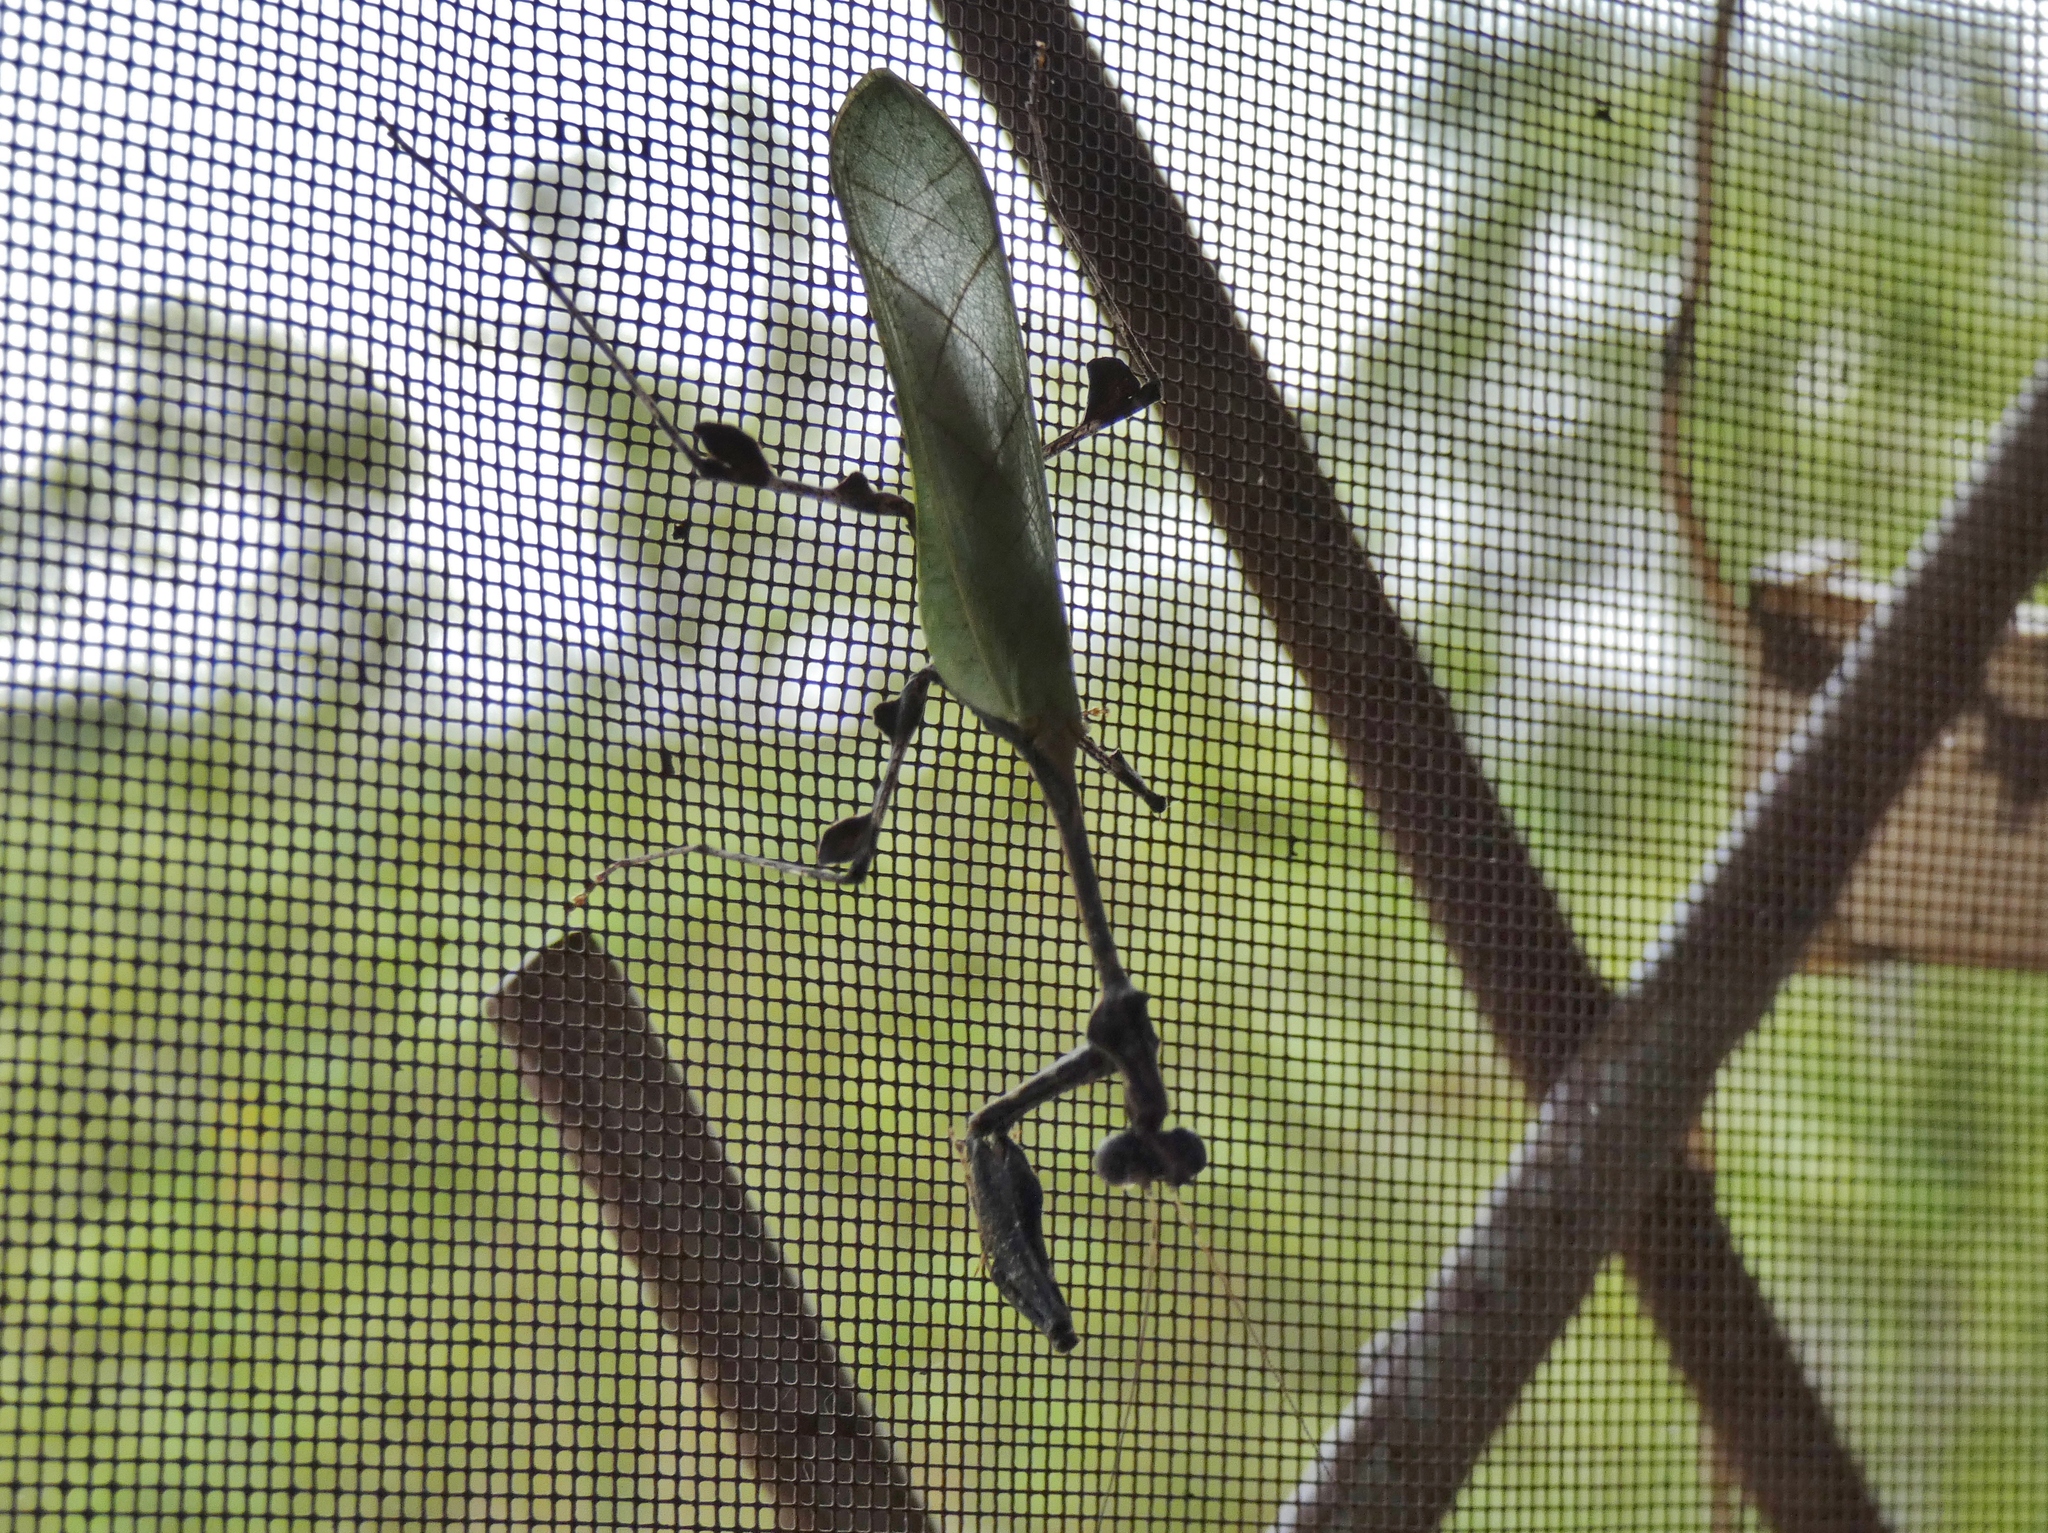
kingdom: Animalia
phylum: Arthropoda
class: Insecta
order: Mantodea
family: Hymenopodidae
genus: Sibylla
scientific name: Sibylla vanderplaetseni
